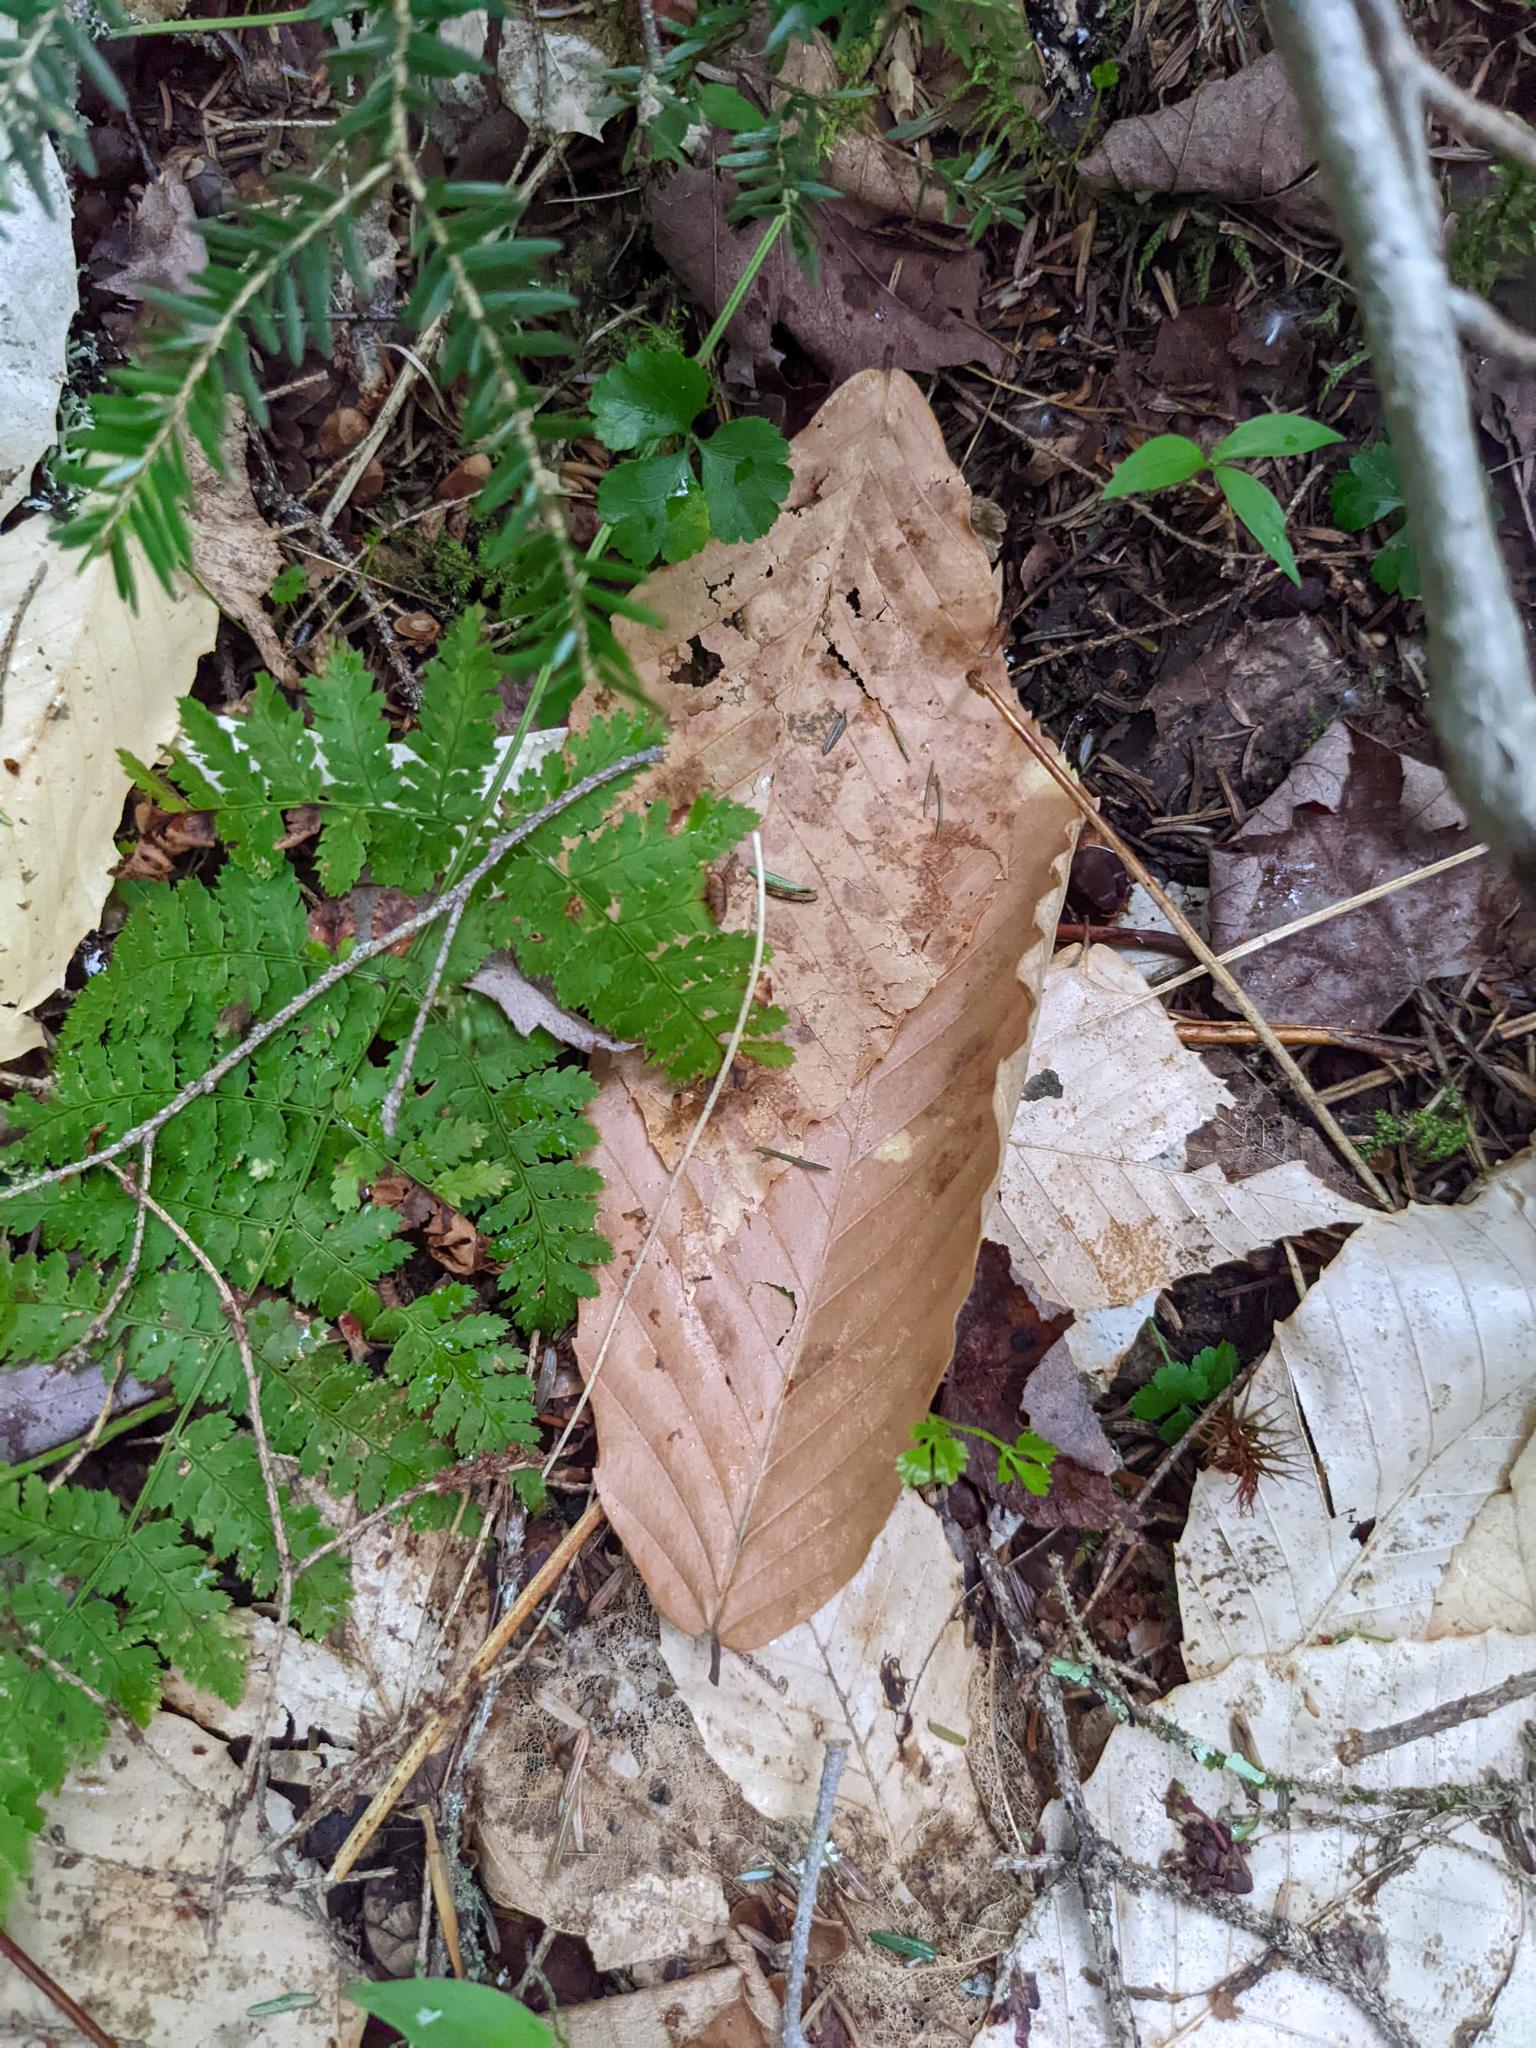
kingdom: Plantae
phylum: Tracheophyta
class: Polypodiopsida
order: Polypodiales
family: Dryopteridaceae
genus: Dryopteris
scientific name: Dryopteris intermedia
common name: Evergreen wood fern
